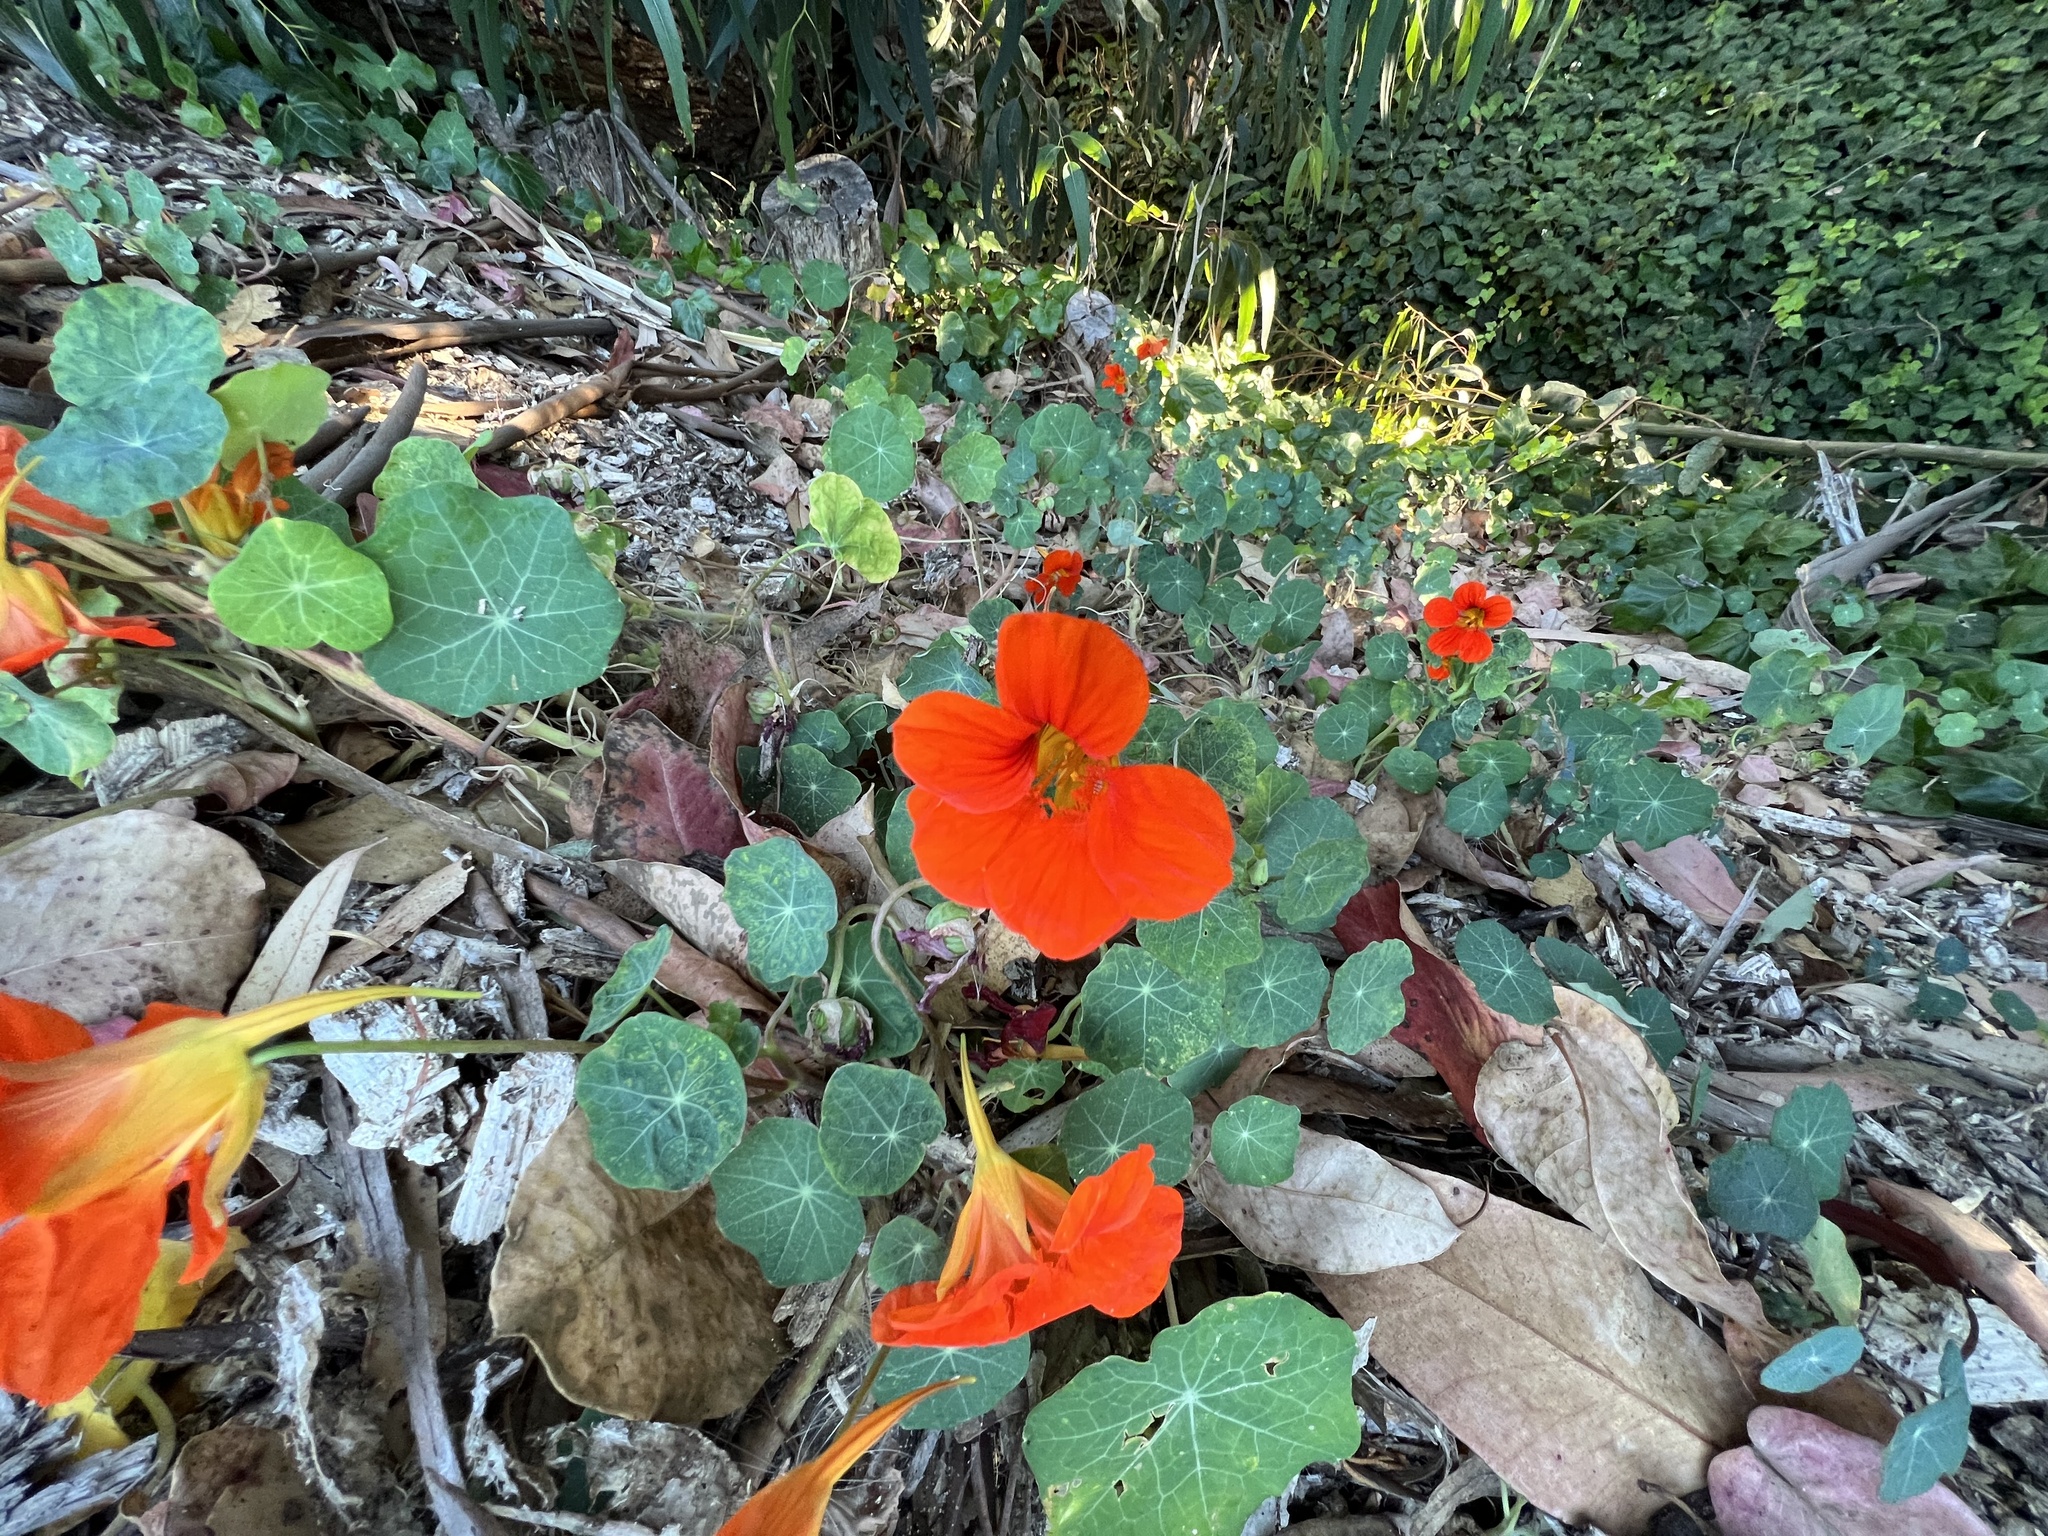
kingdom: Plantae
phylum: Tracheophyta
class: Magnoliopsida
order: Brassicales
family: Tropaeolaceae
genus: Tropaeolum
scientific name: Tropaeolum majus
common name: Nasturtium
